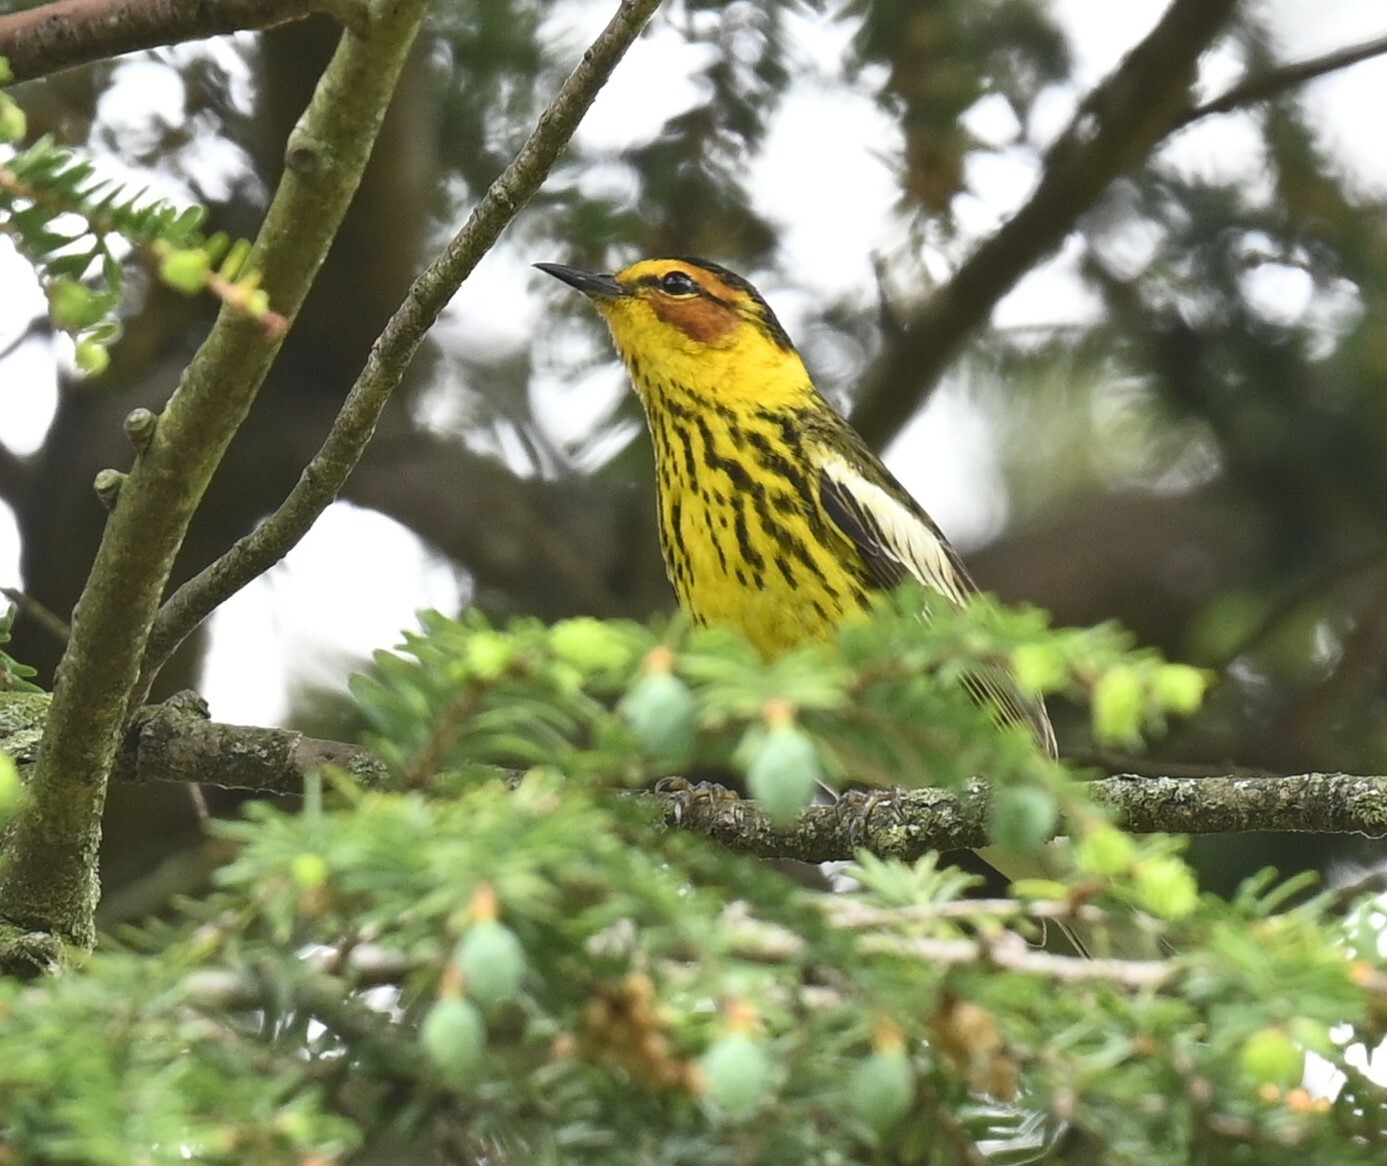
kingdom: Animalia
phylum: Chordata
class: Aves
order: Passeriformes
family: Parulidae
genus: Setophaga
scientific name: Setophaga tigrina
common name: Cape may warbler
